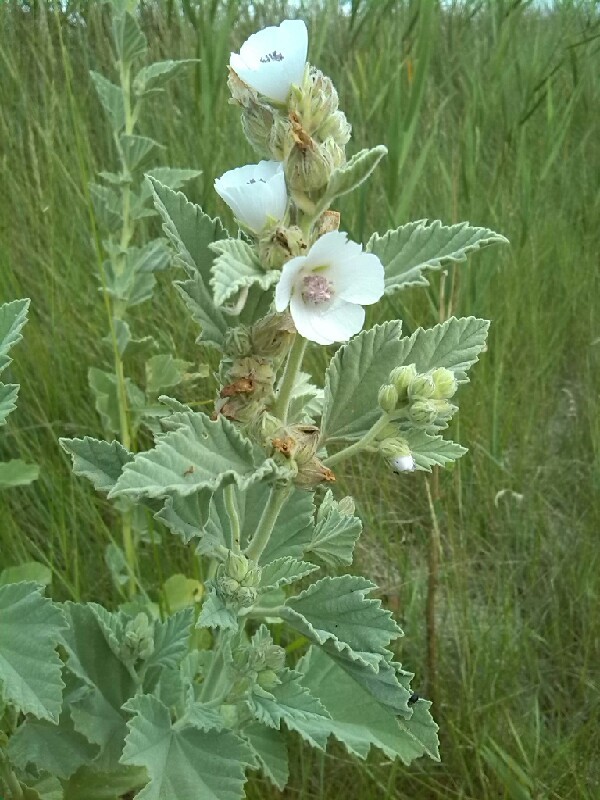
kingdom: Plantae
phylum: Tracheophyta
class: Magnoliopsida
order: Malvales
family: Malvaceae
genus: Althaea
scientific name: Althaea officinalis
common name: Marsh-mallow
